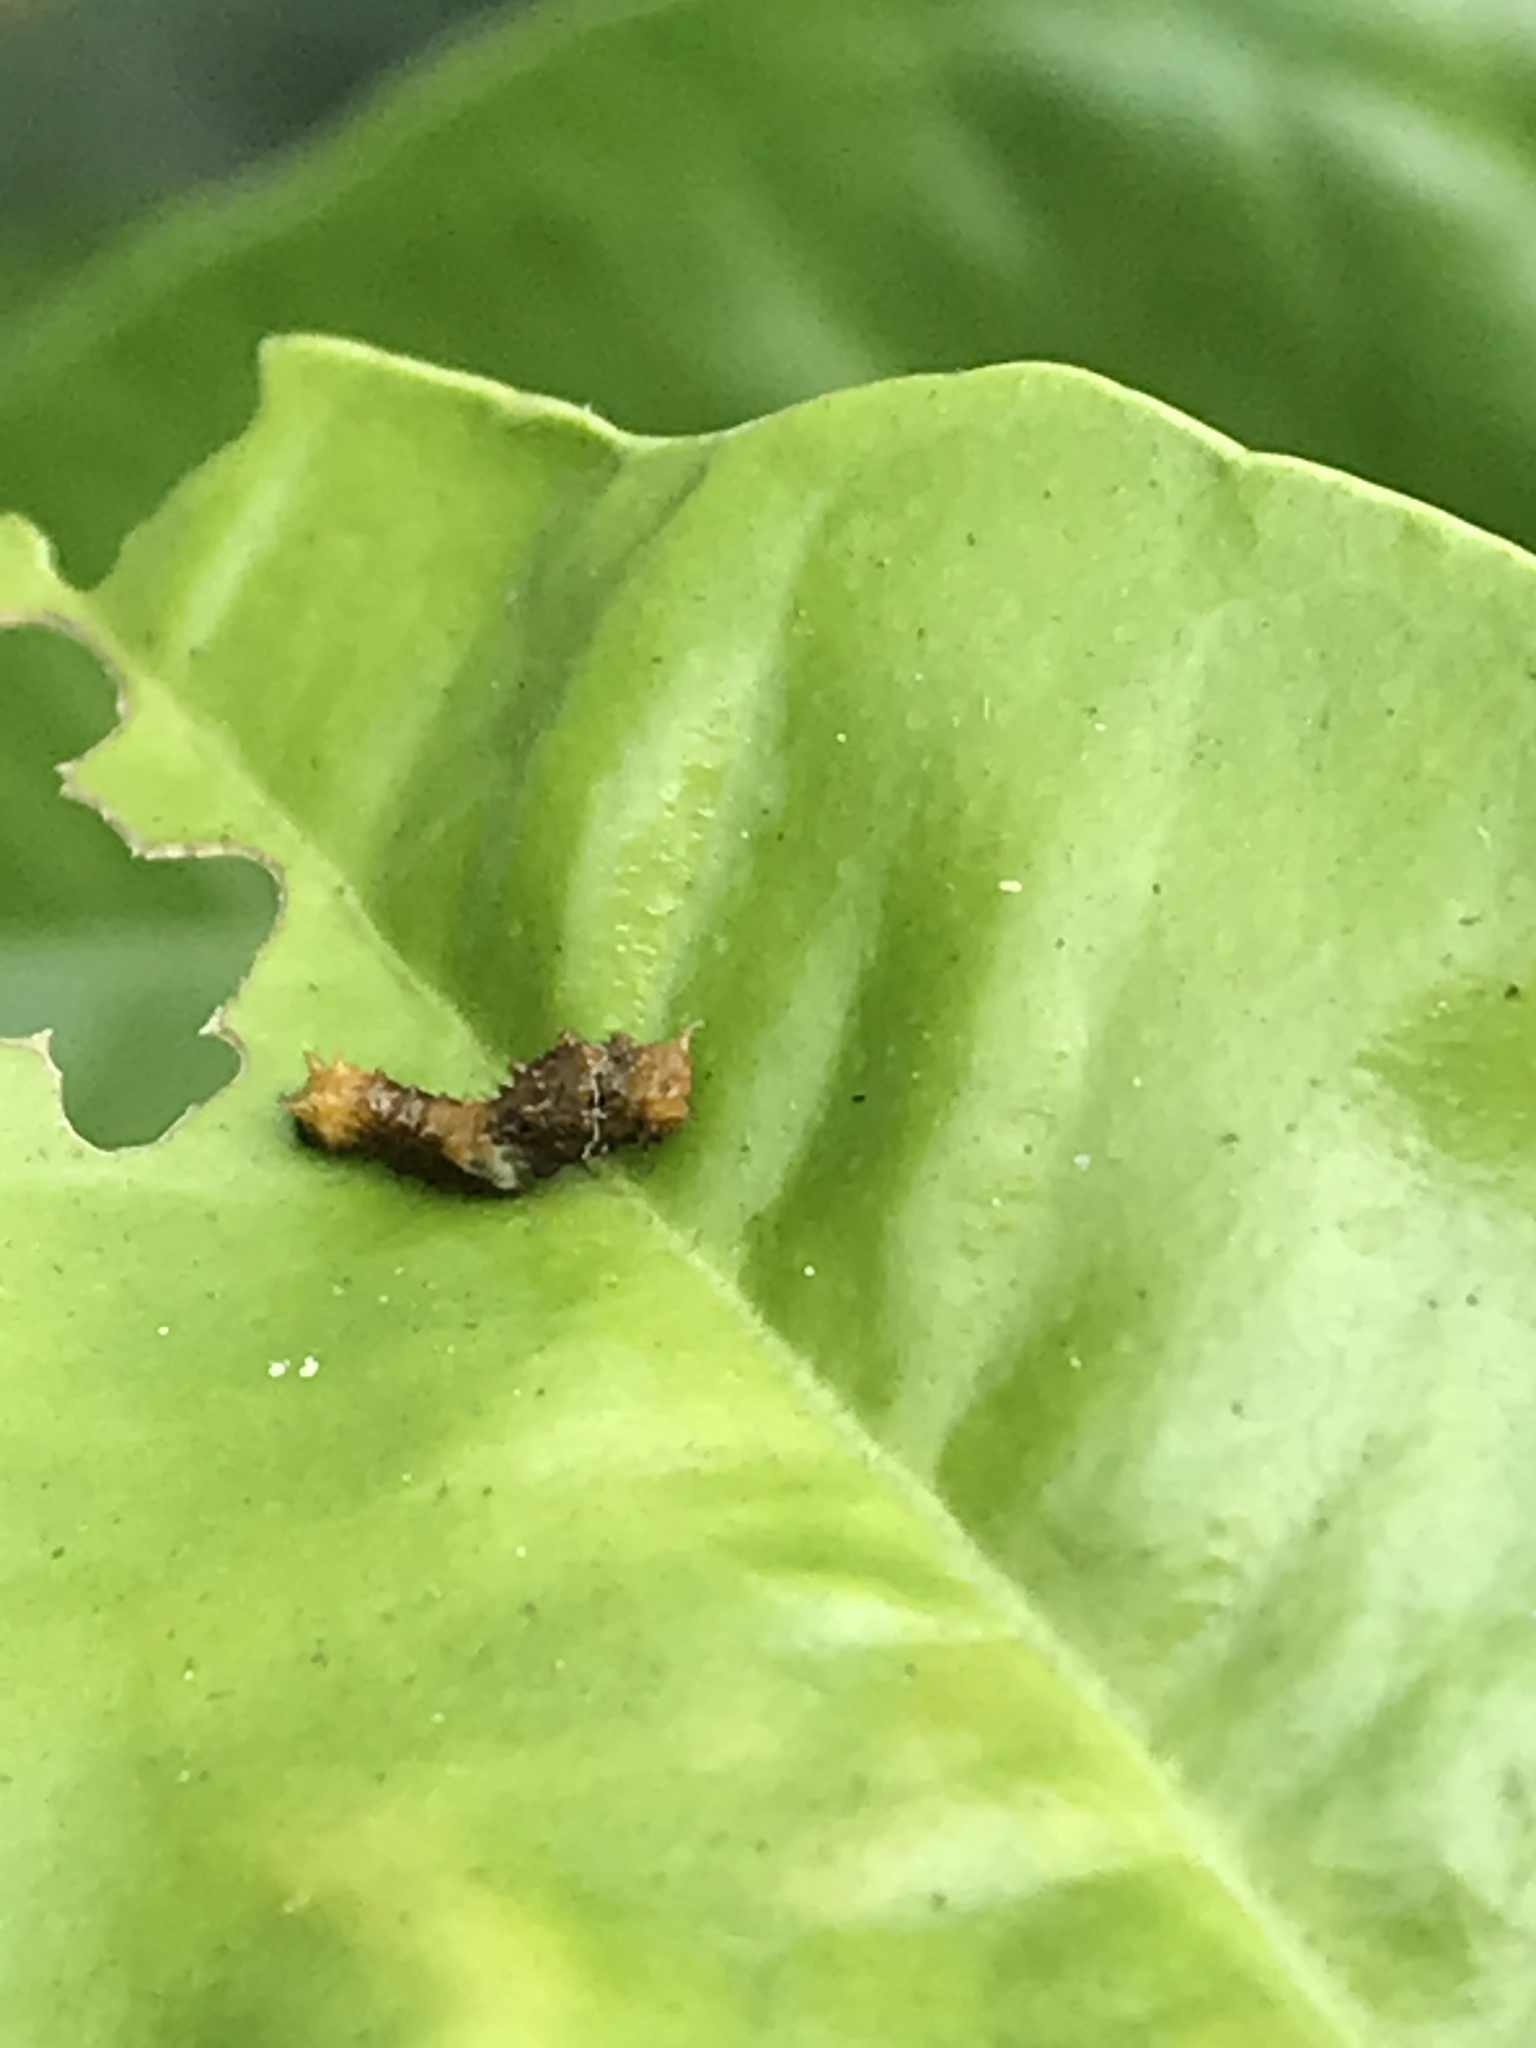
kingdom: Animalia
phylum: Arthropoda
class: Insecta
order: Lepidoptera
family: Papilionidae
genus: Papilio
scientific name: Papilio rumiko
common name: Western giant swallowtail
